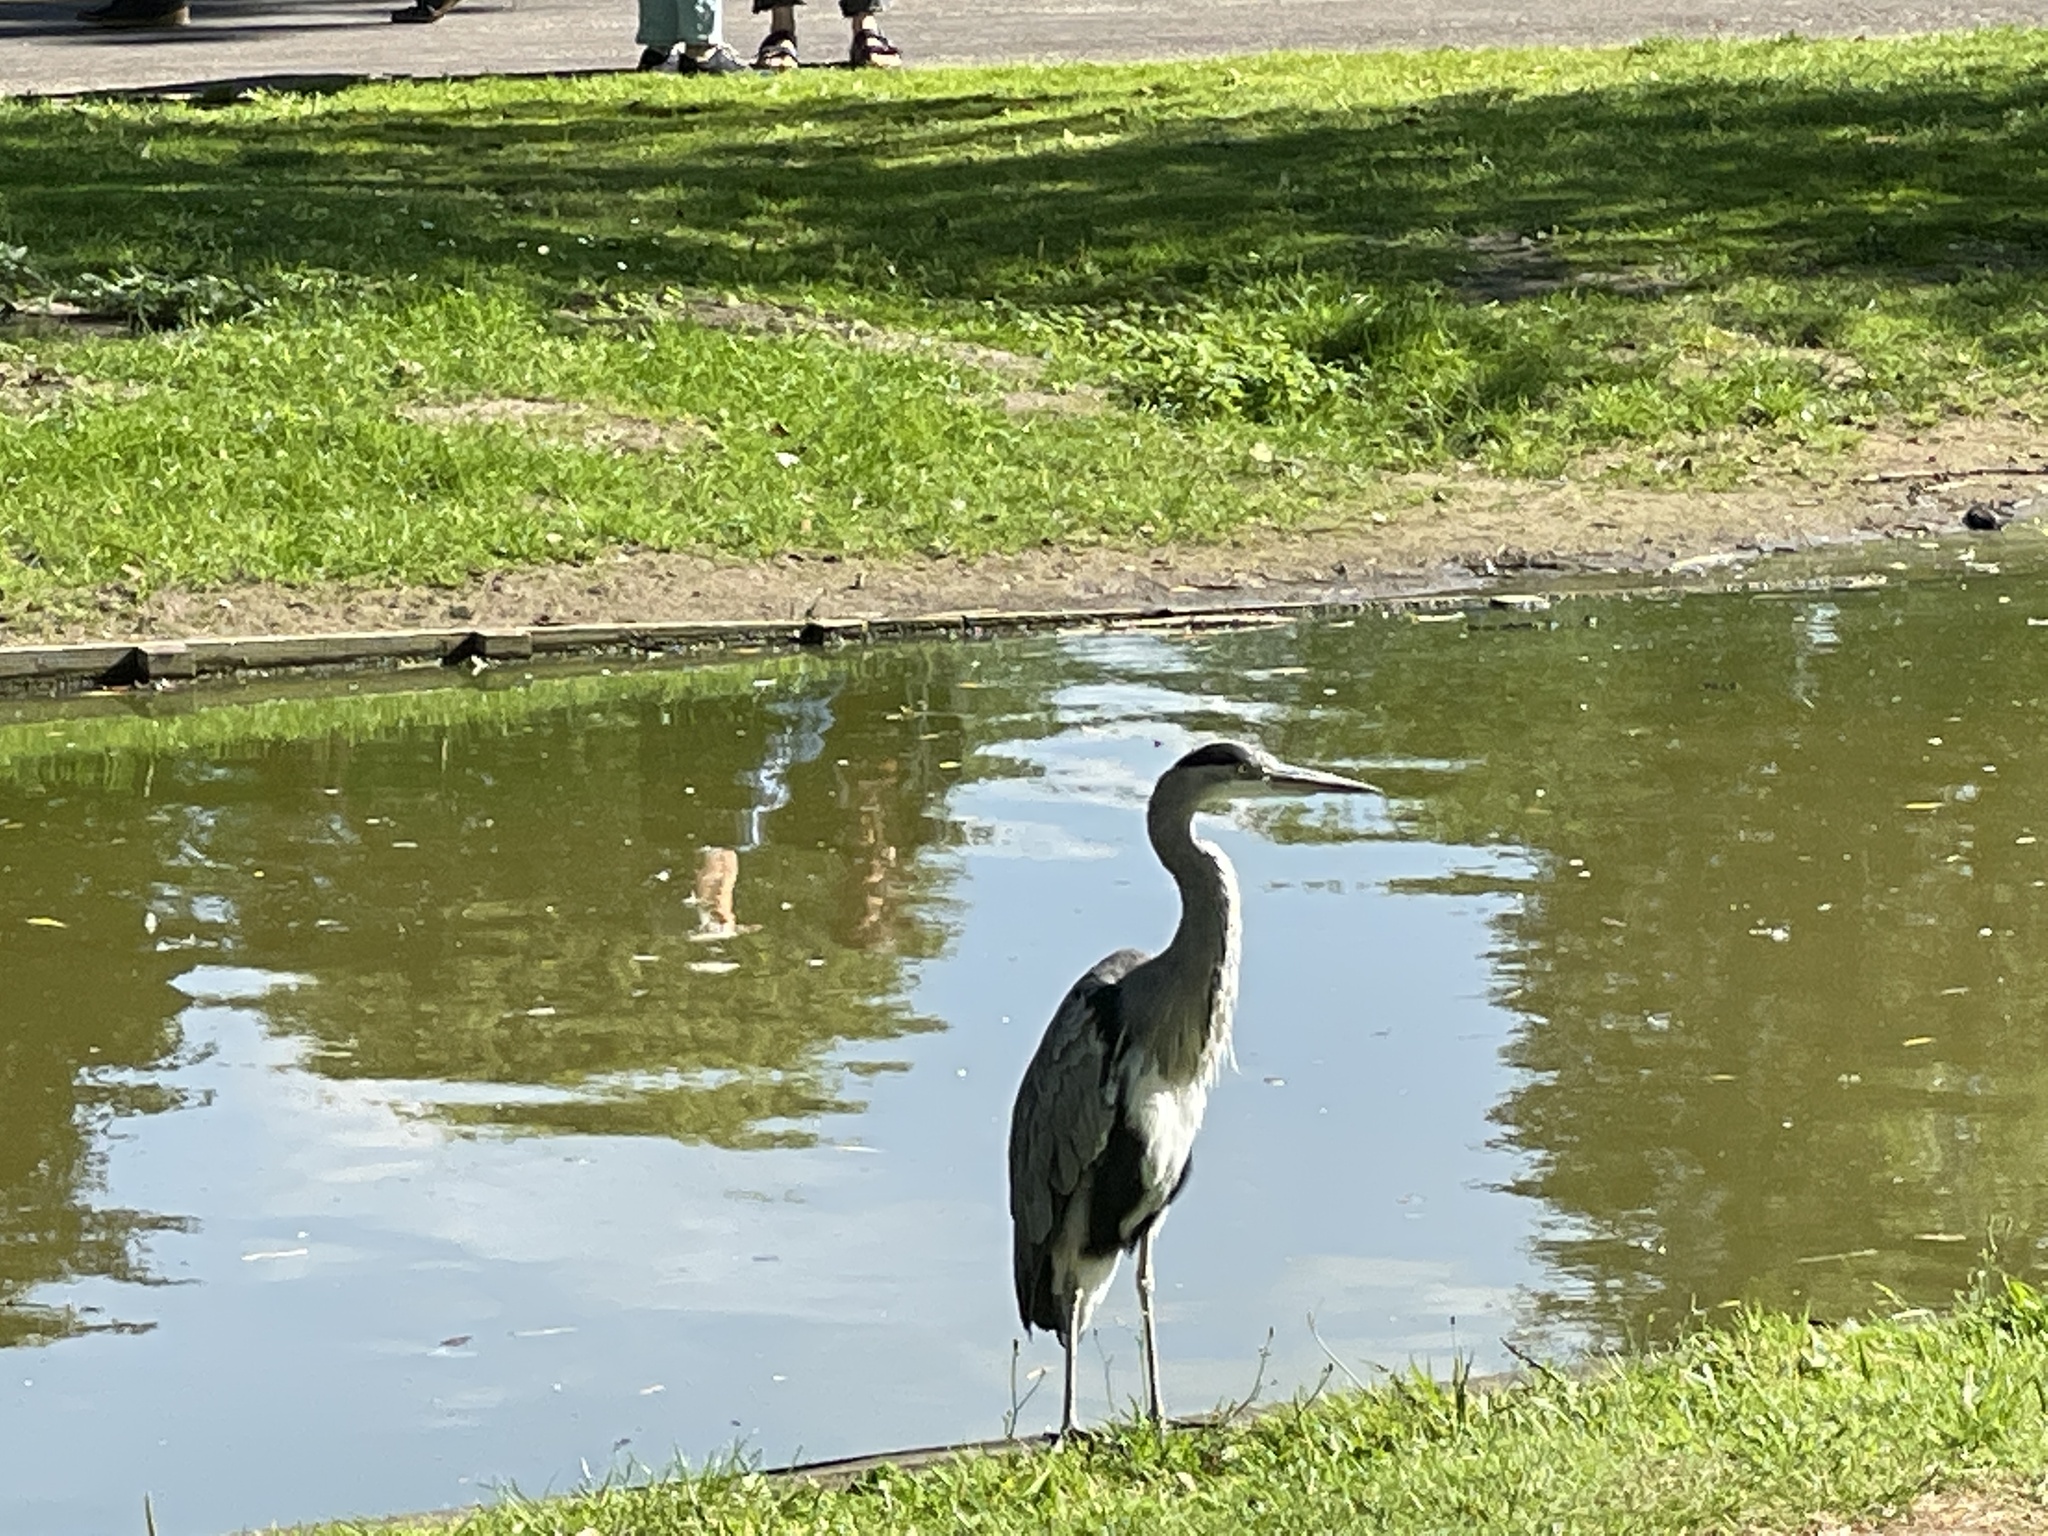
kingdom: Animalia
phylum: Chordata
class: Aves
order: Pelecaniformes
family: Ardeidae
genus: Ardea
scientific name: Ardea cinerea
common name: Grey heron
